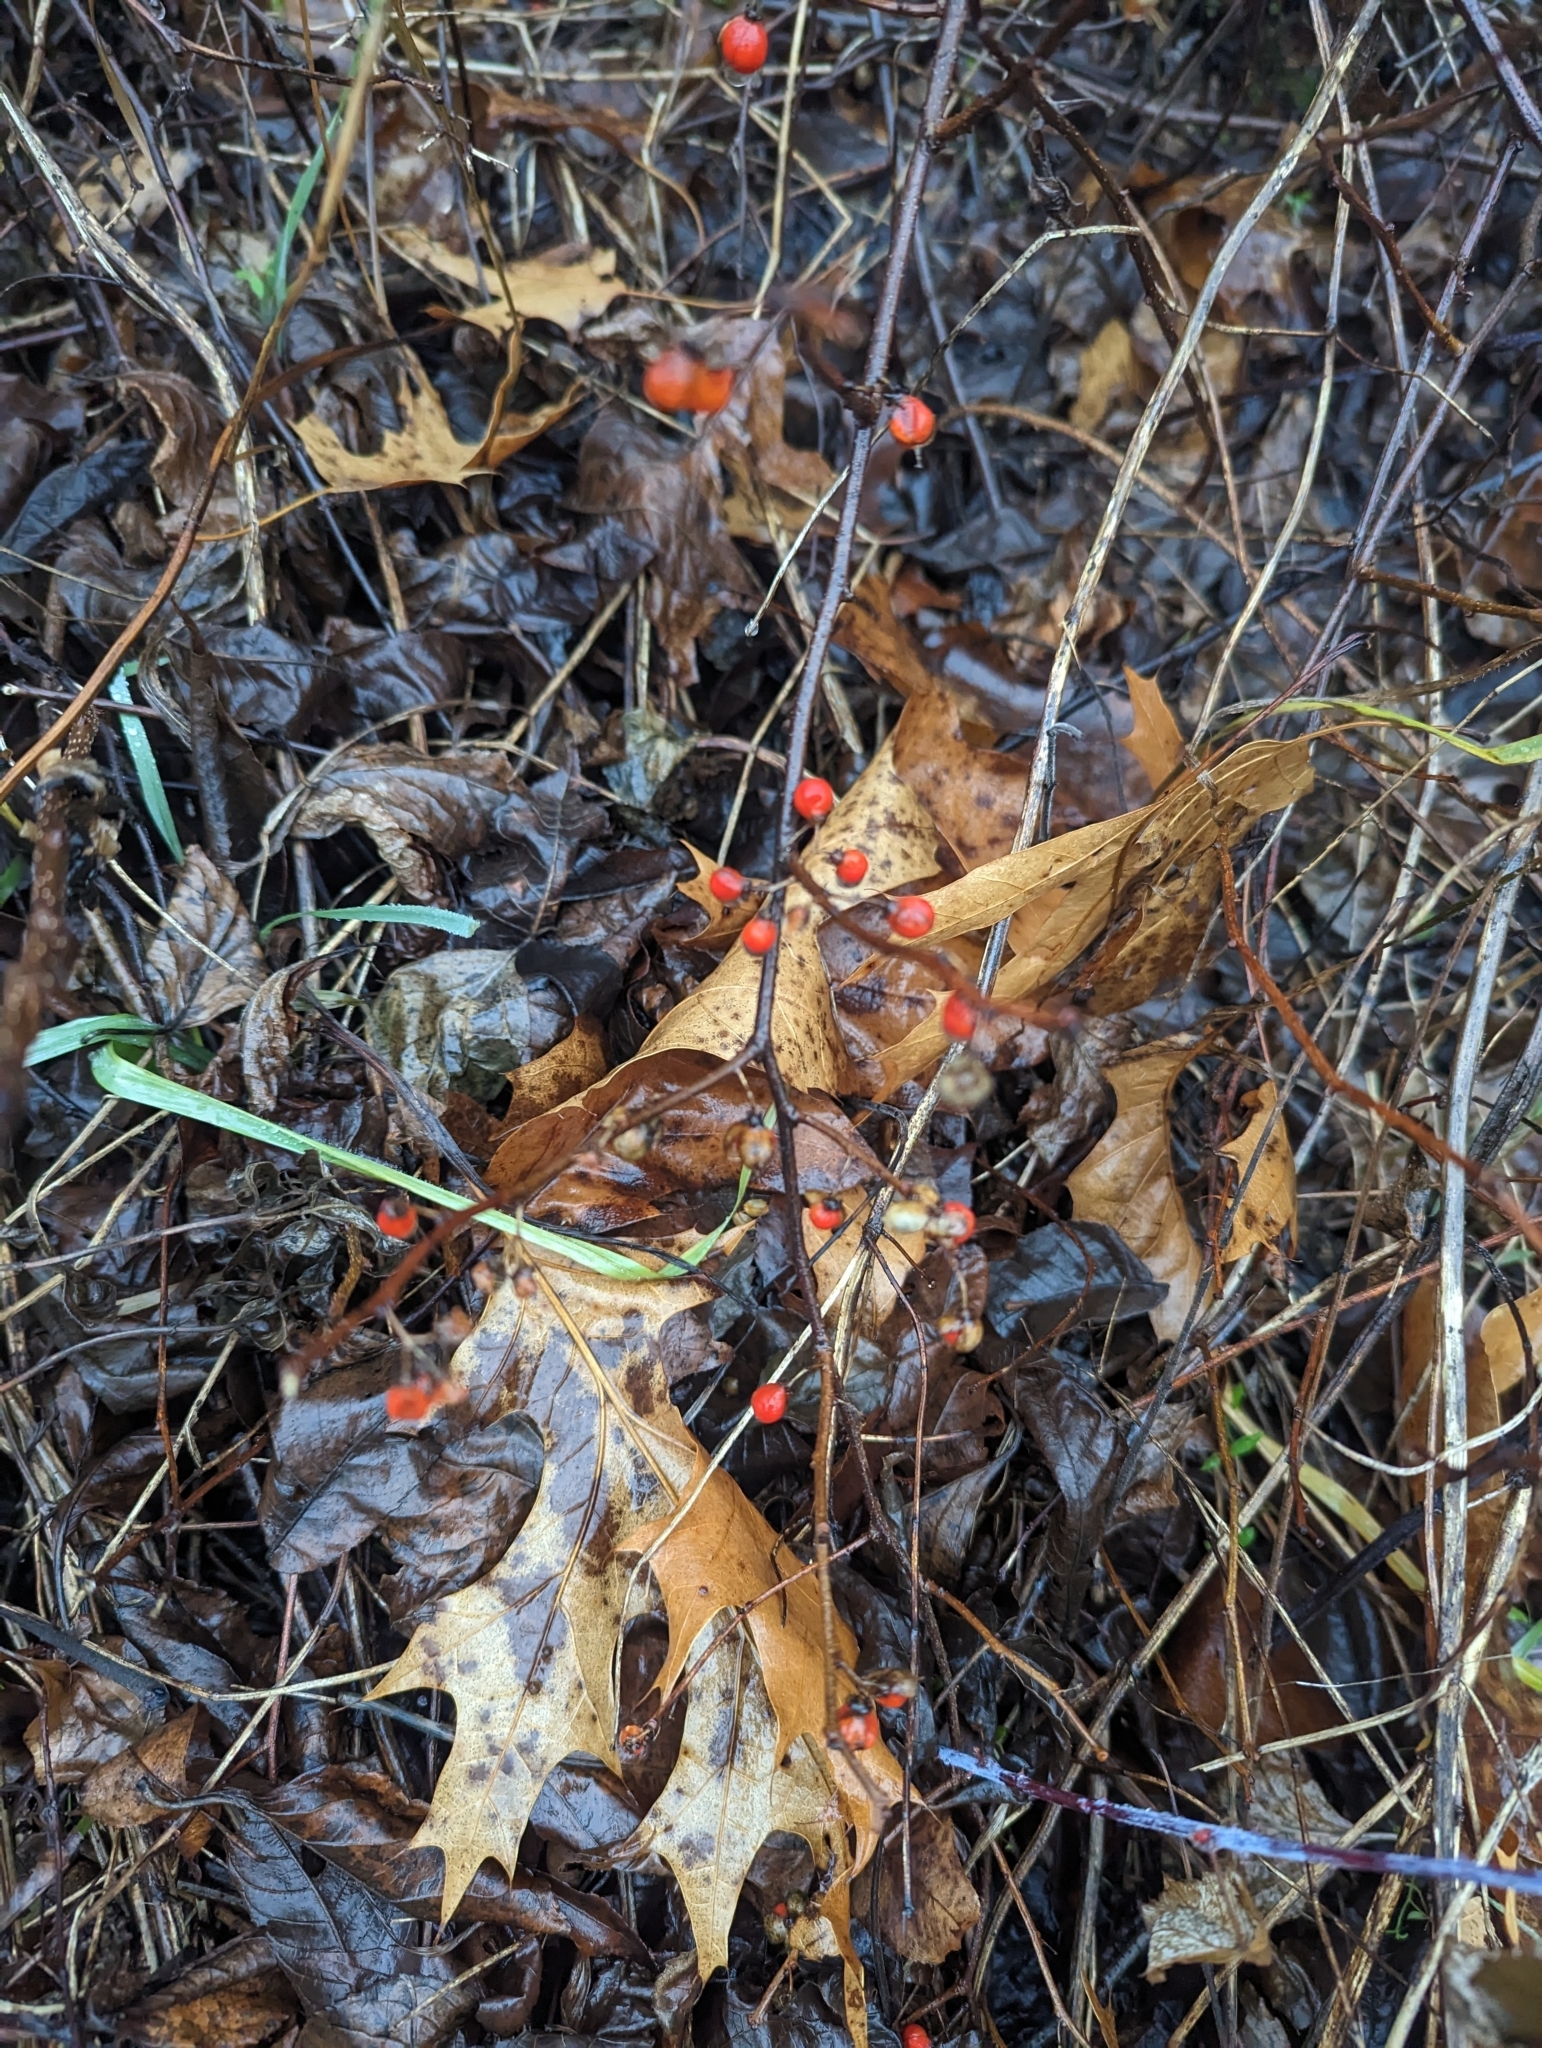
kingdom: Plantae
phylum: Tracheophyta
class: Magnoliopsida
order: Celastrales
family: Celastraceae
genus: Celastrus
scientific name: Celastrus orbiculatus
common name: Oriental bittersweet
